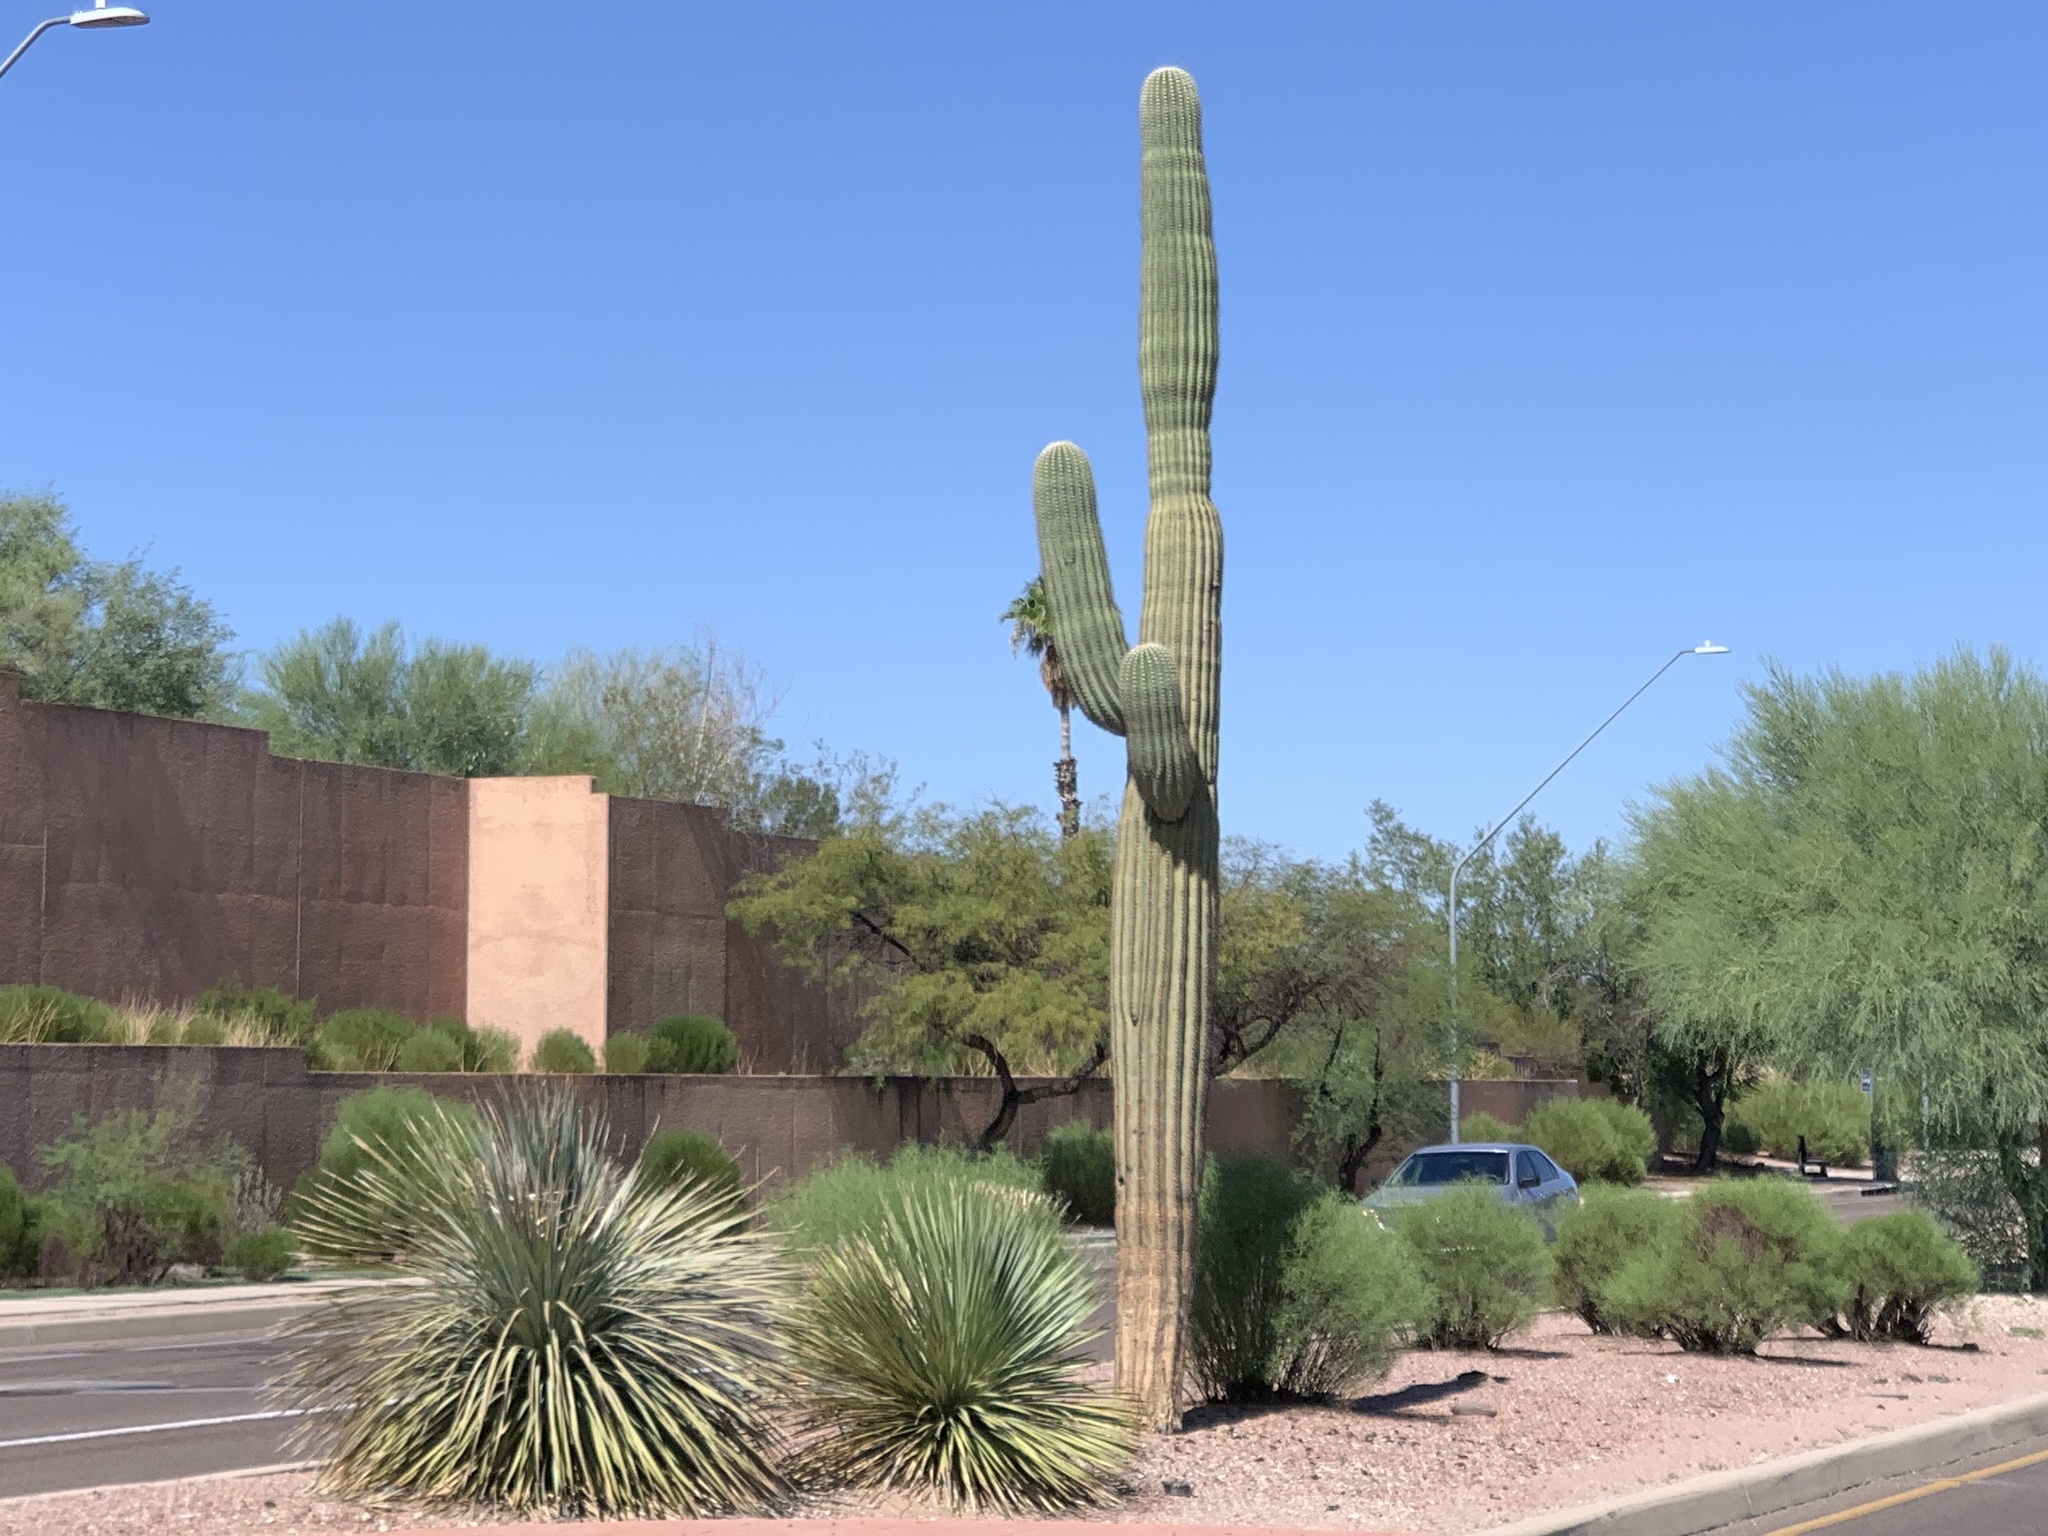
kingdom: Plantae
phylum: Tracheophyta
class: Magnoliopsida
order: Caryophyllales
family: Cactaceae
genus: Carnegiea
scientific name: Carnegiea gigantea
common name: Saguaro
